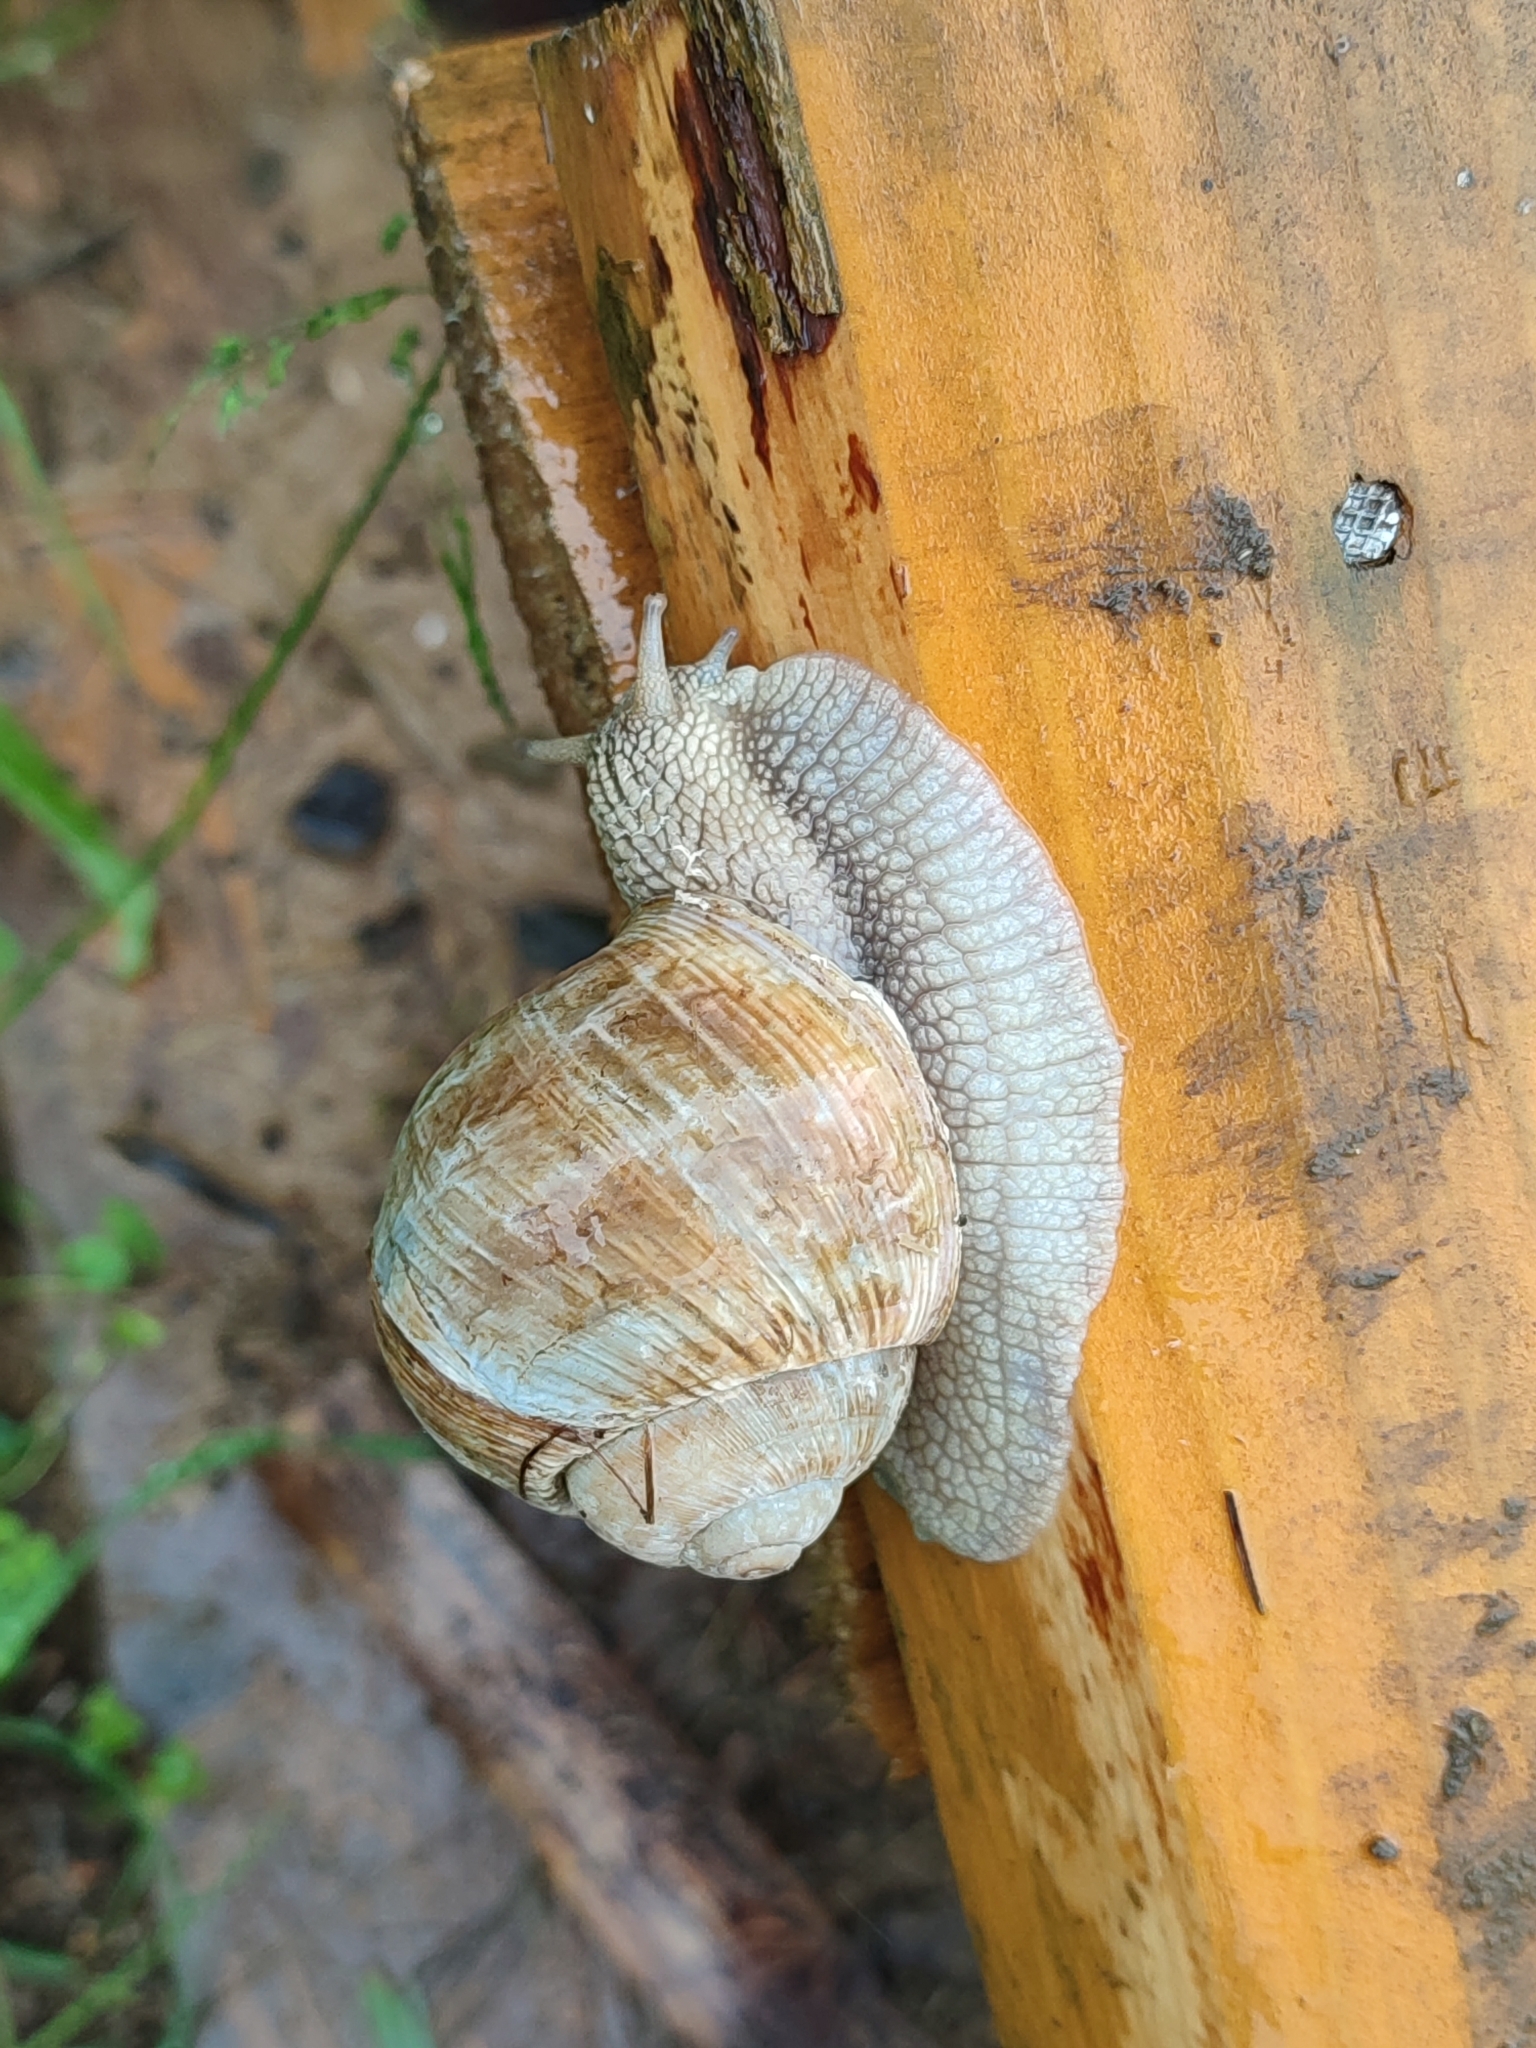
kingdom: Animalia
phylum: Mollusca
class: Gastropoda
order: Stylommatophora
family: Helicidae
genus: Helix
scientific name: Helix pomatia
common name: Roman snail
